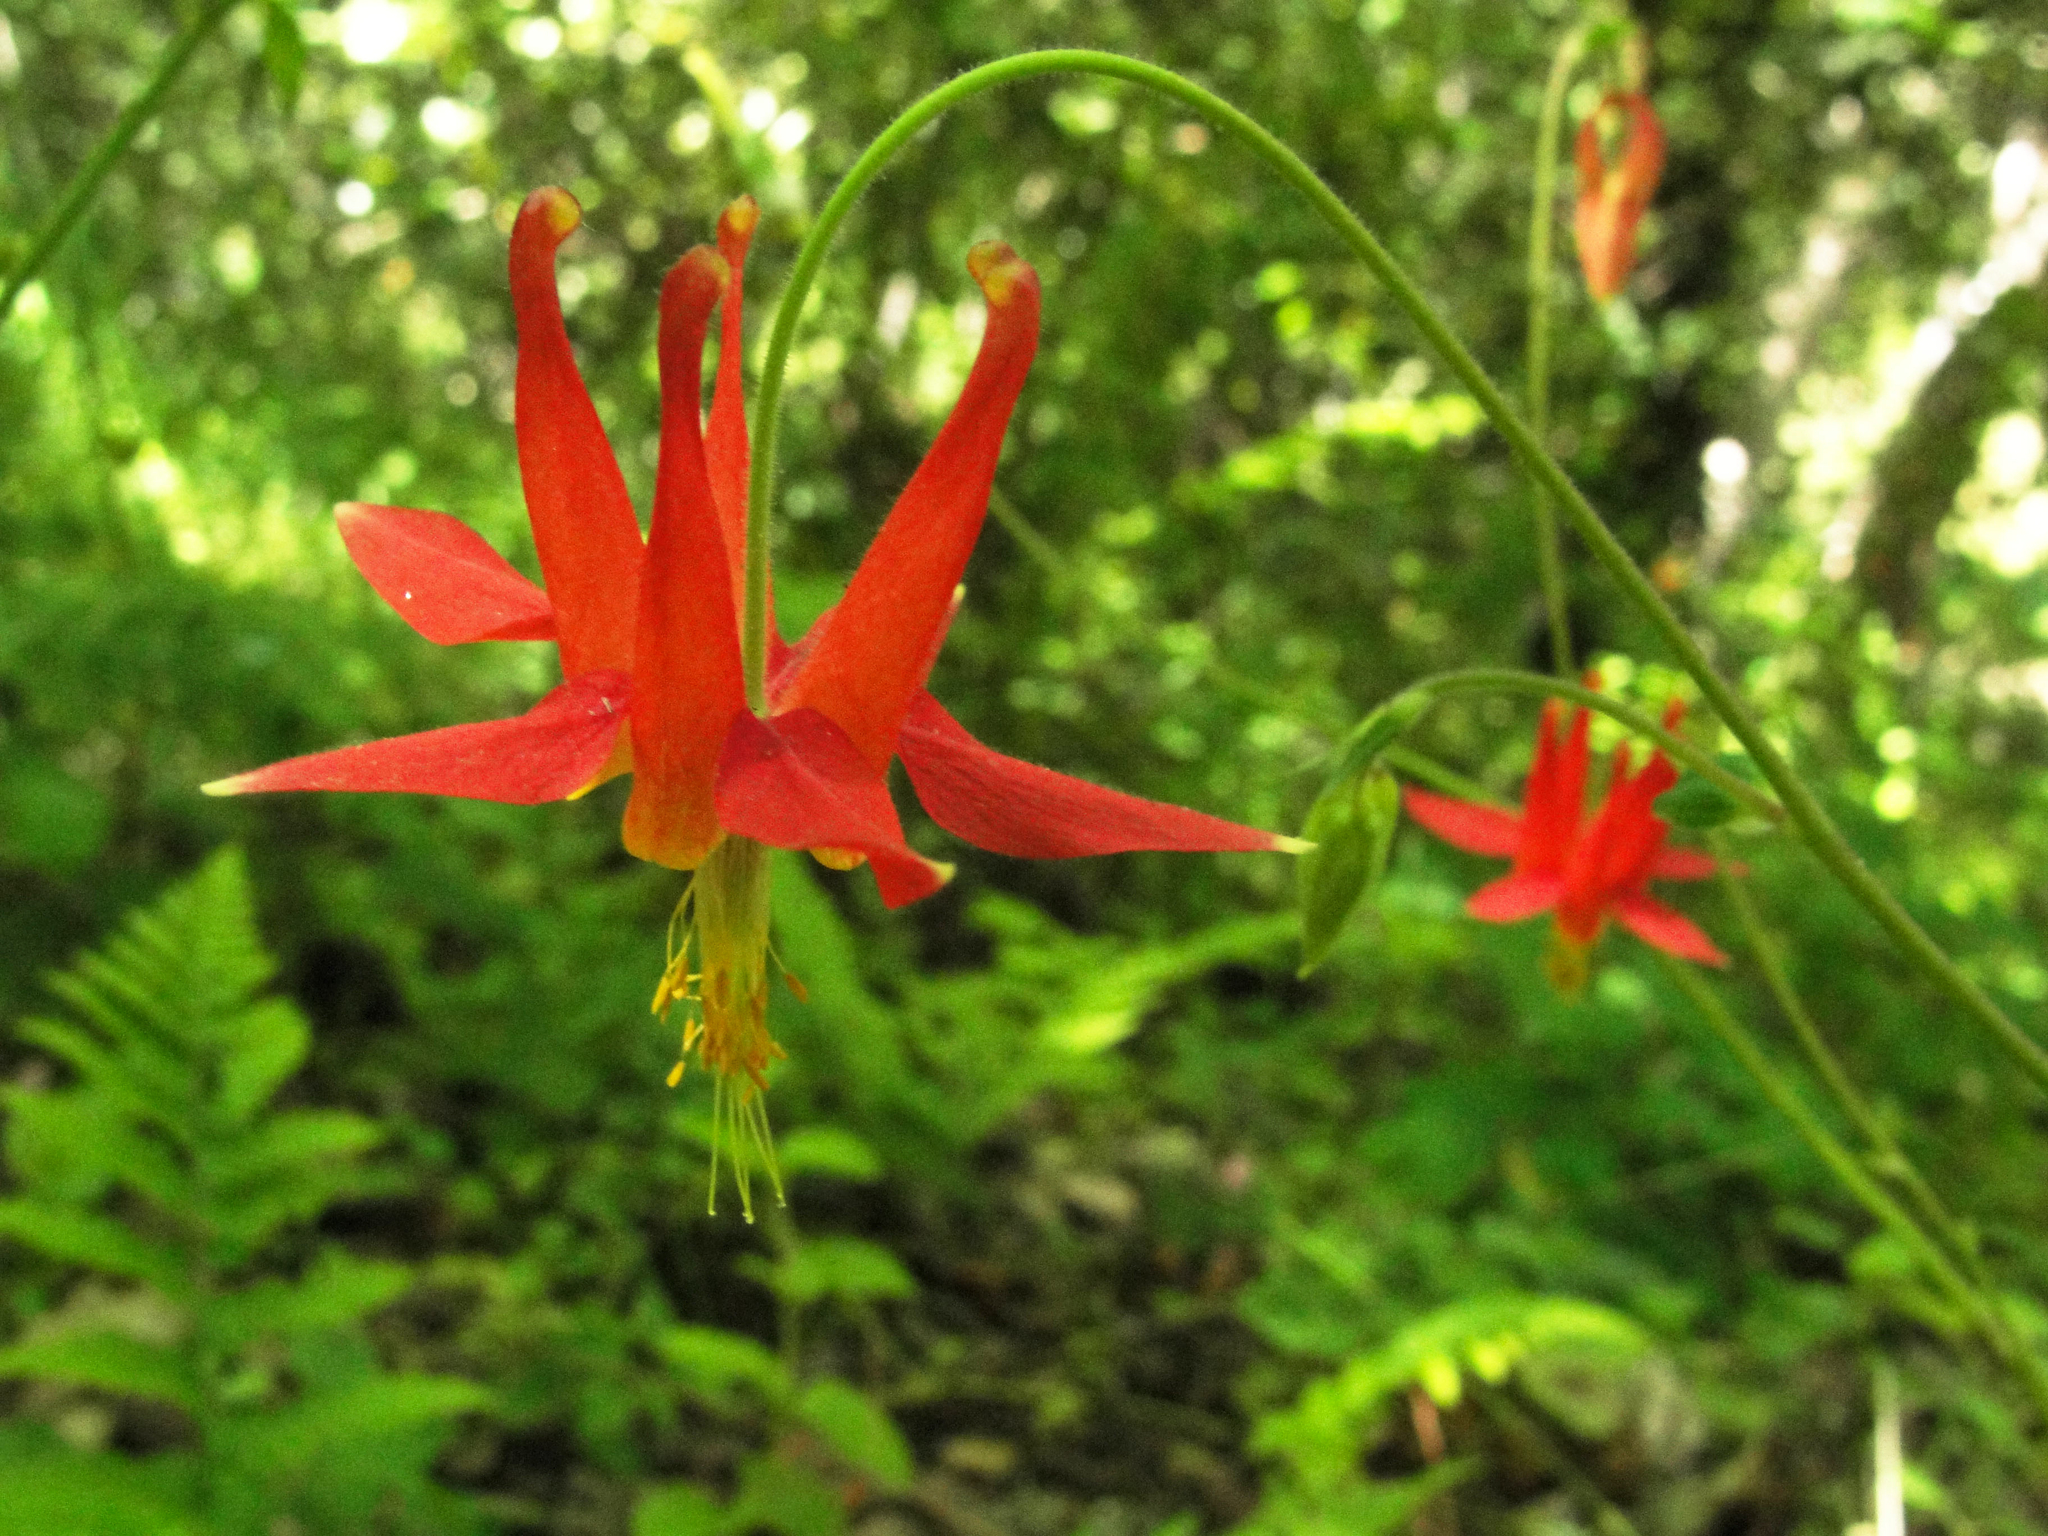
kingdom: Plantae
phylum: Tracheophyta
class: Magnoliopsida
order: Ranunculales
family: Ranunculaceae
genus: Aquilegia
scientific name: Aquilegia formosa
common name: Sitka columbine
